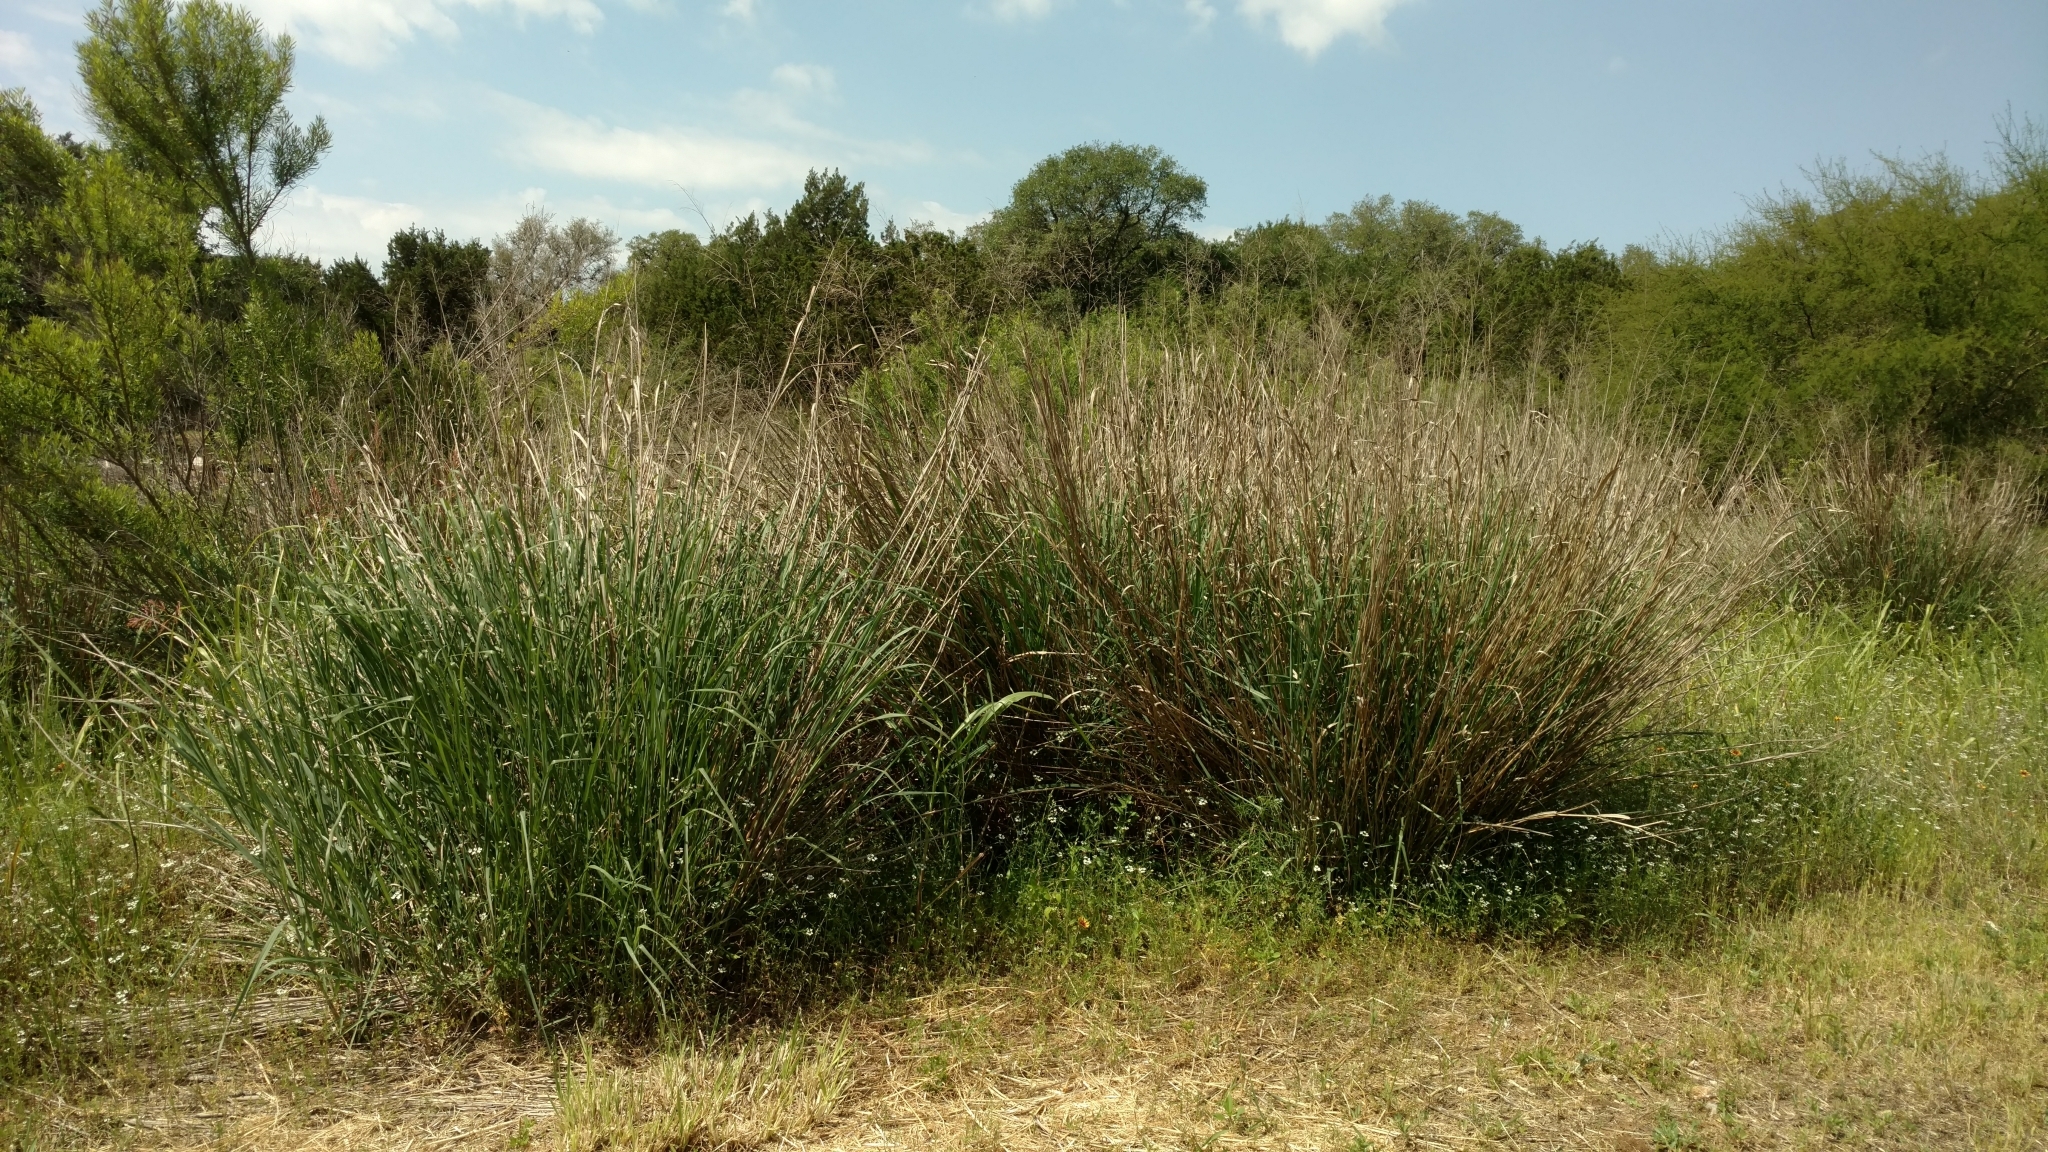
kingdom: Plantae
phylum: Tracheophyta
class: Liliopsida
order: Poales
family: Poaceae
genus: Panicum
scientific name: Panicum virgatum
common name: Switchgrass
